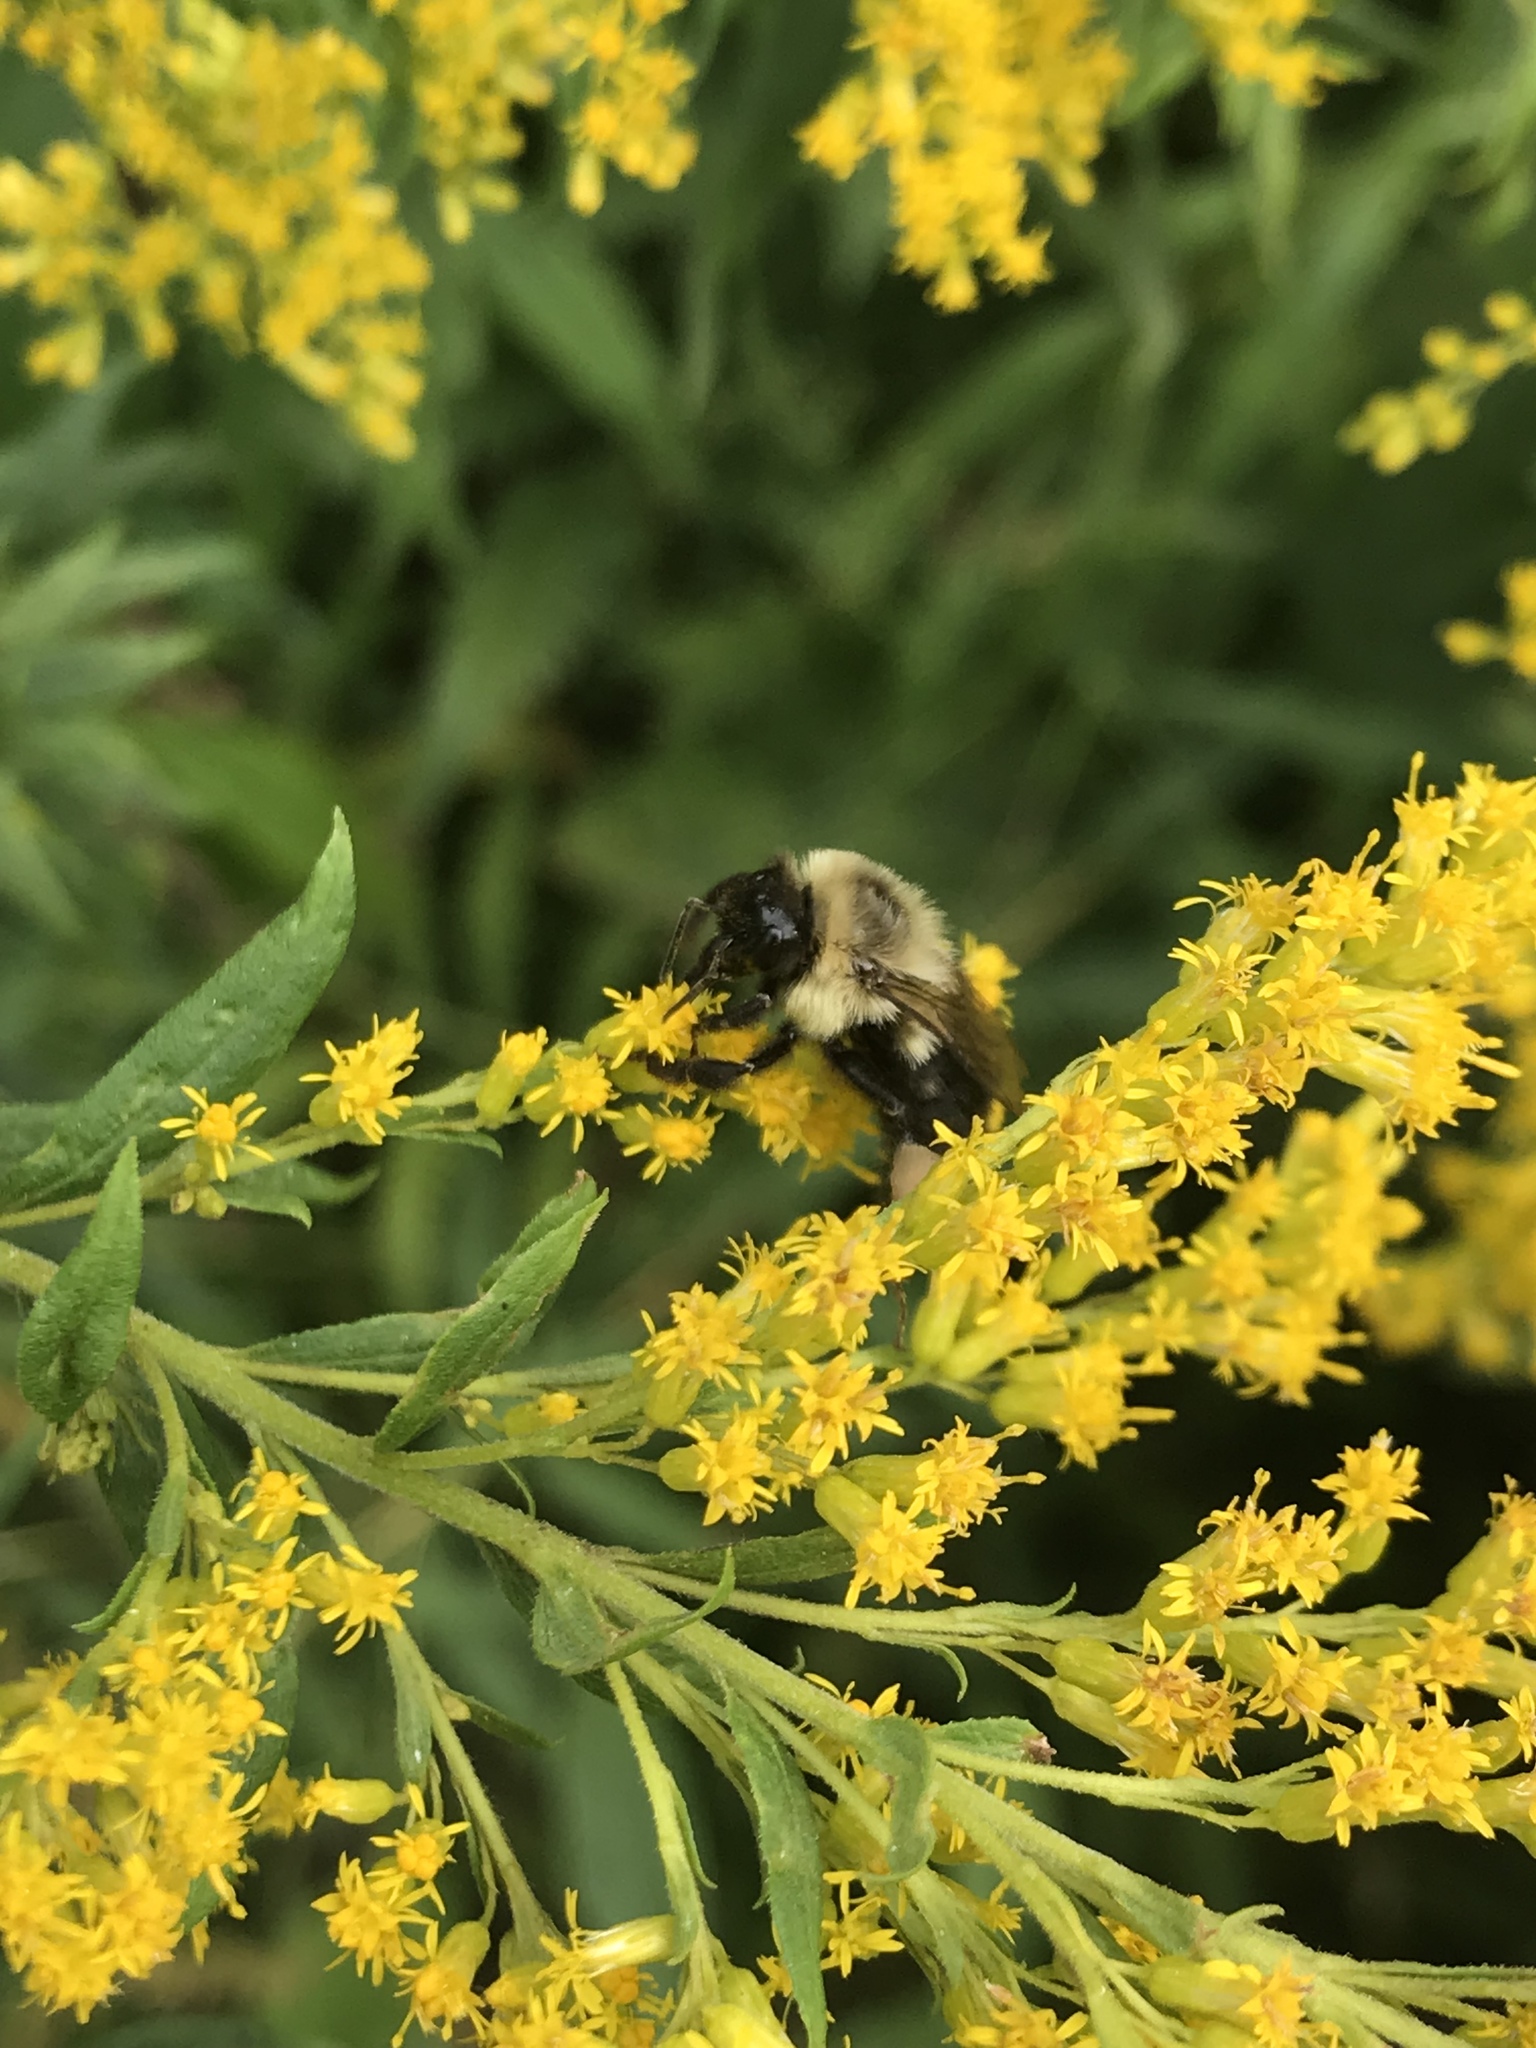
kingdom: Animalia
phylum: Arthropoda
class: Insecta
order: Hymenoptera
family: Apidae
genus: Bombus
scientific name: Bombus impatiens
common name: Common eastern bumble bee
